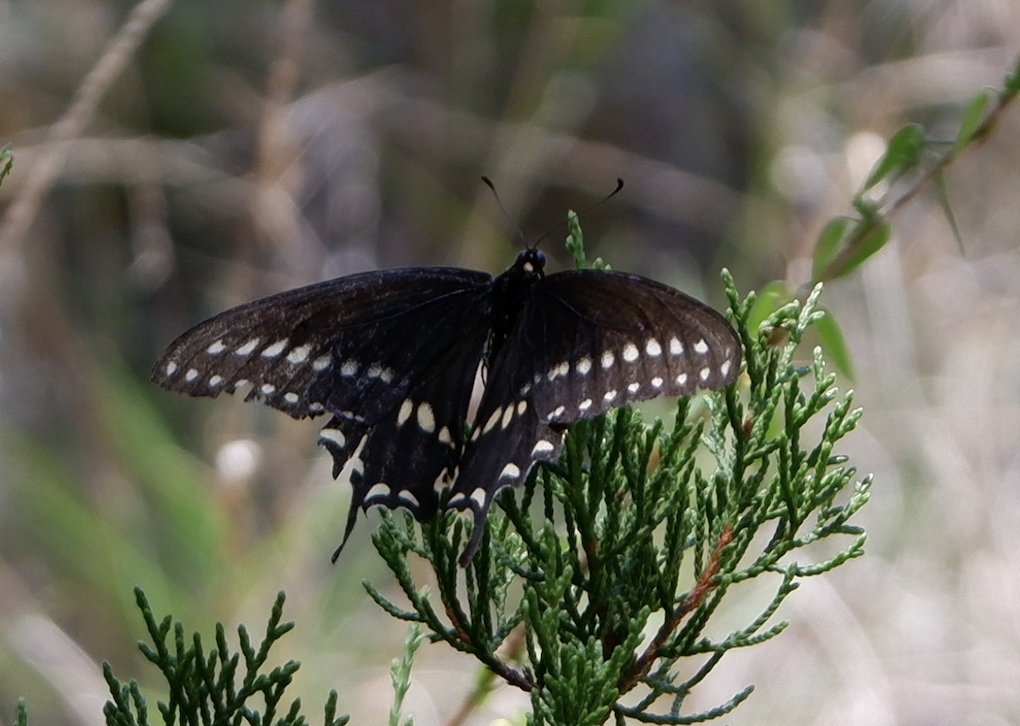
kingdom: Animalia
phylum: Arthropoda
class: Insecta
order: Lepidoptera
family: Papilionidae
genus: Papilio
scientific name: Papilio polyxenes
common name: Black swallowtail
